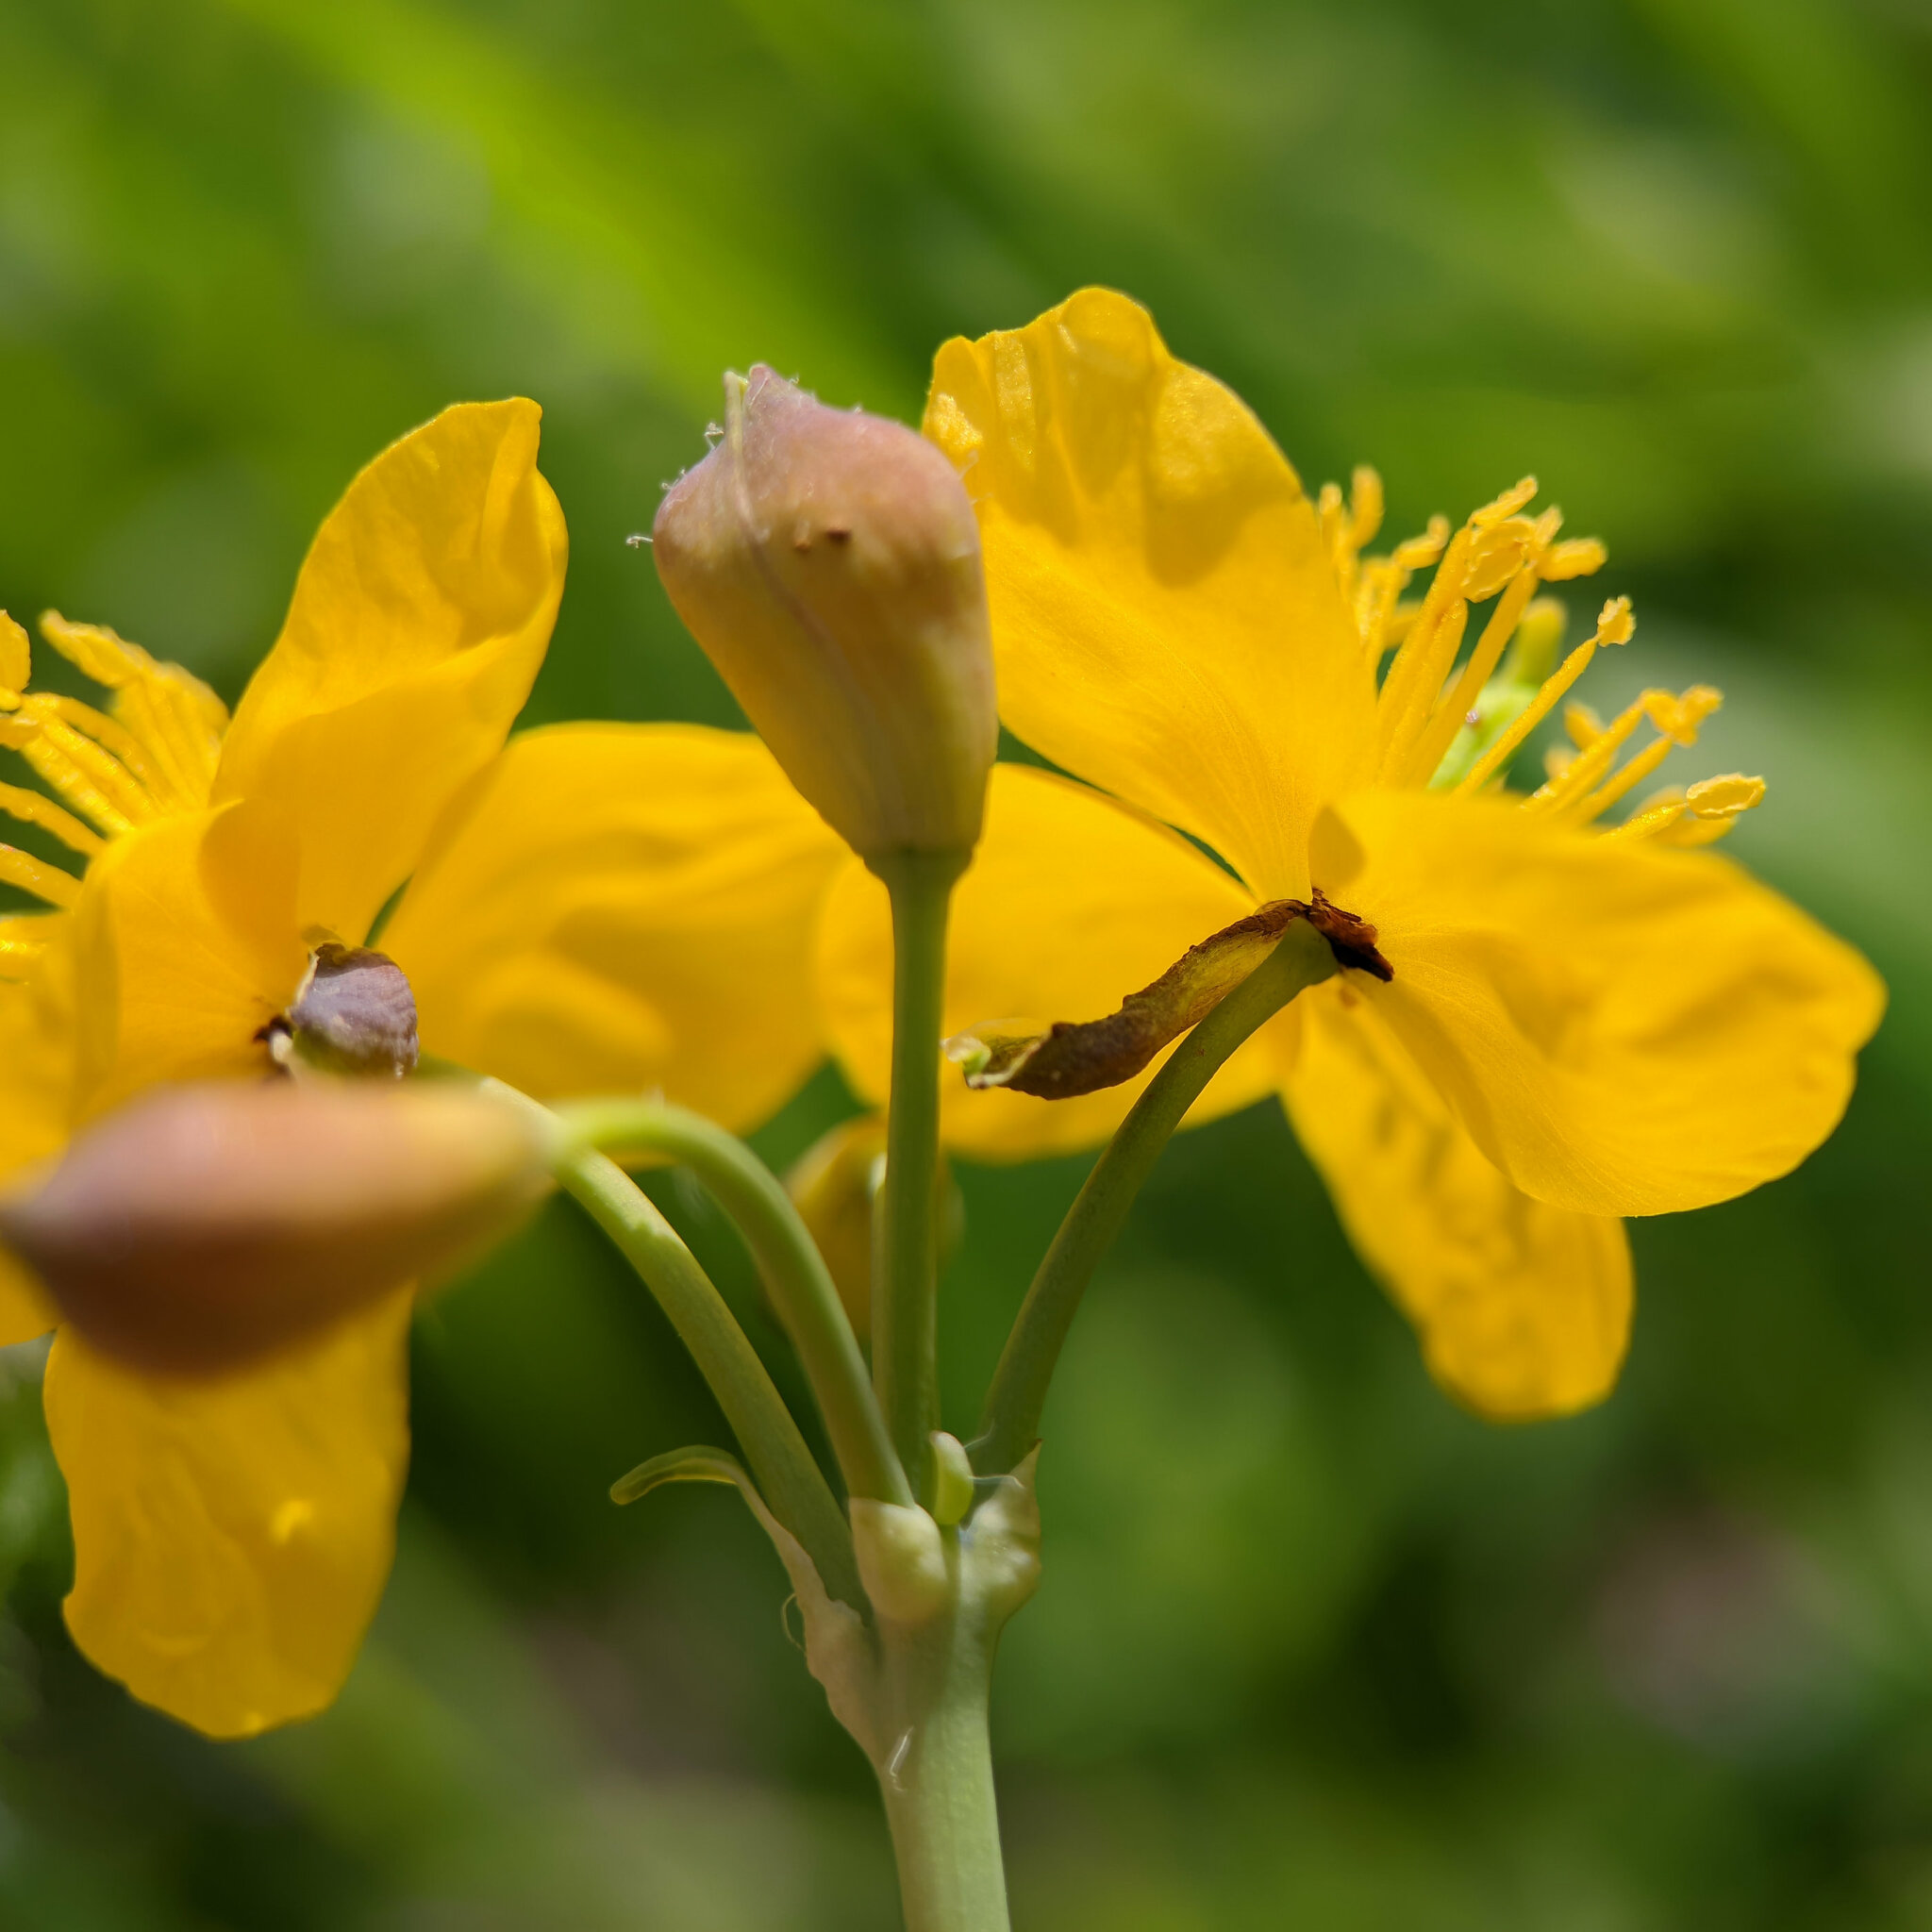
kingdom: Plantae
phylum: Tracheophyta
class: Magnoliopsida
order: Ranunculales
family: Papaveraceae
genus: Chelidonium
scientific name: Chelidonium majus
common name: Greater celandine
